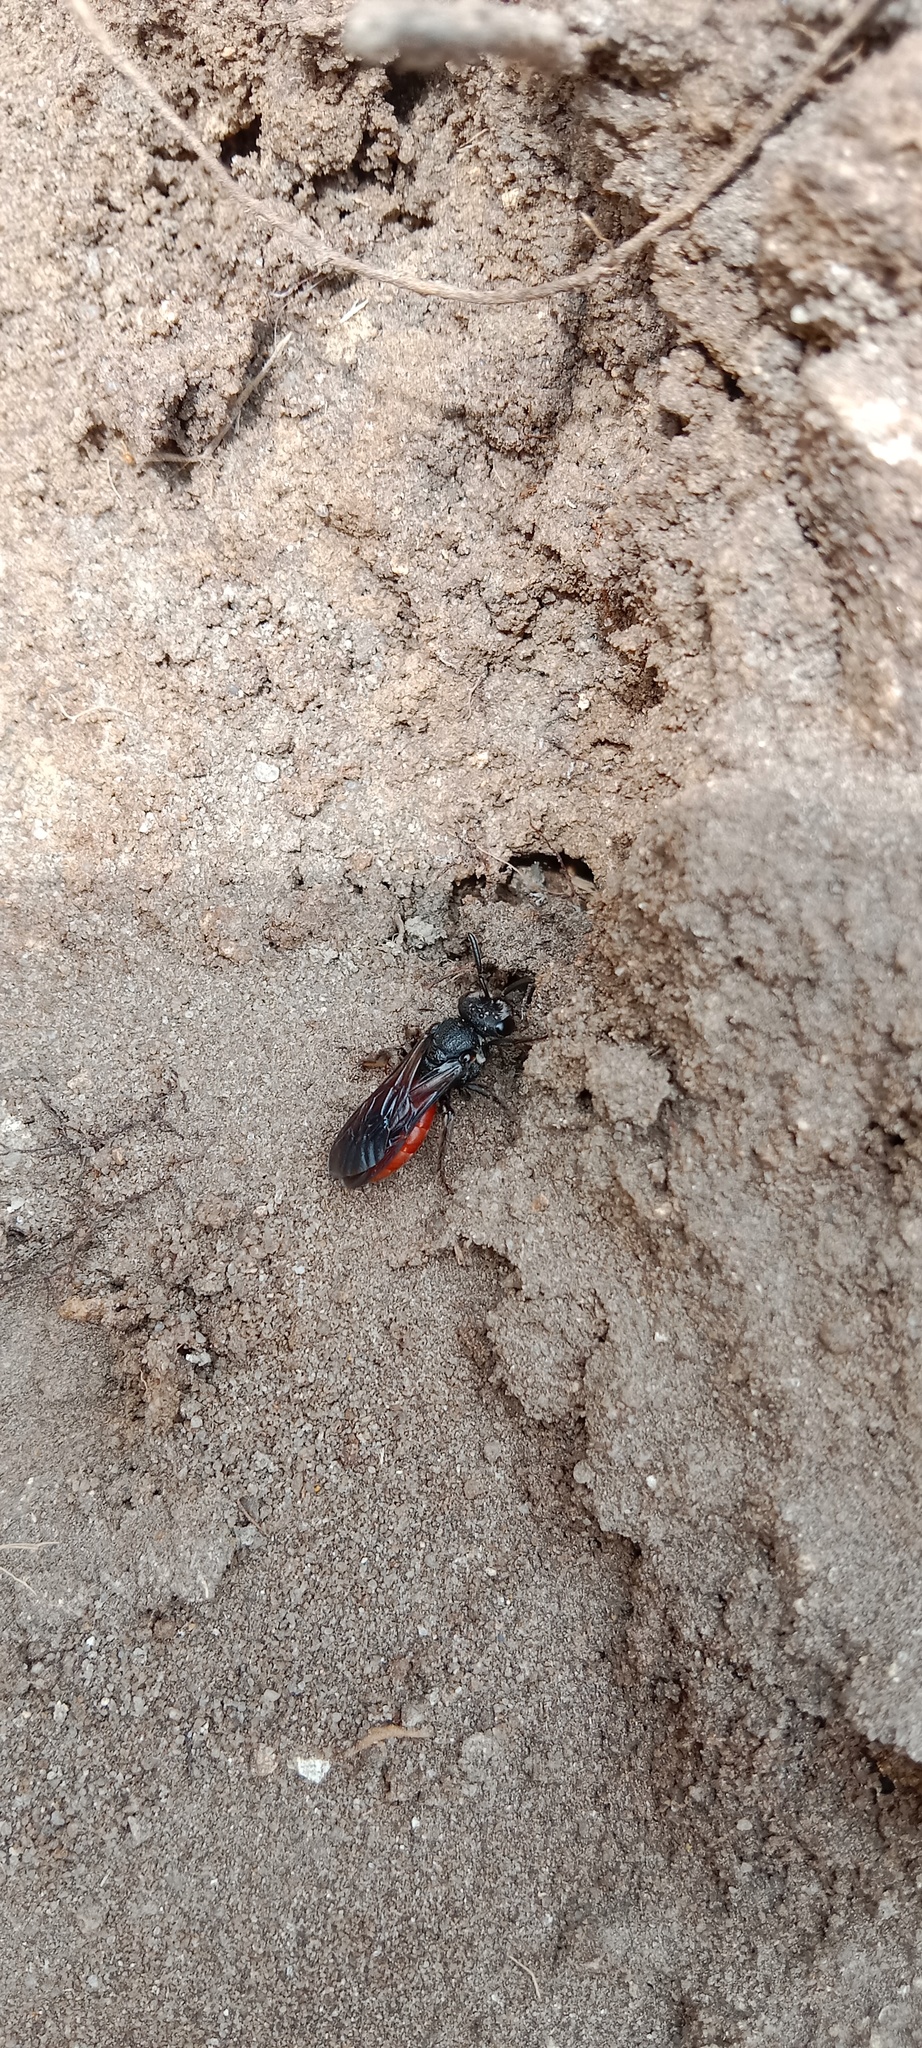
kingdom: Animalia
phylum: Arthropoda
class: Insecta
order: Hymenoptera
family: Halictidae
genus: Sphecodes
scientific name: Sphecodes albilabris
